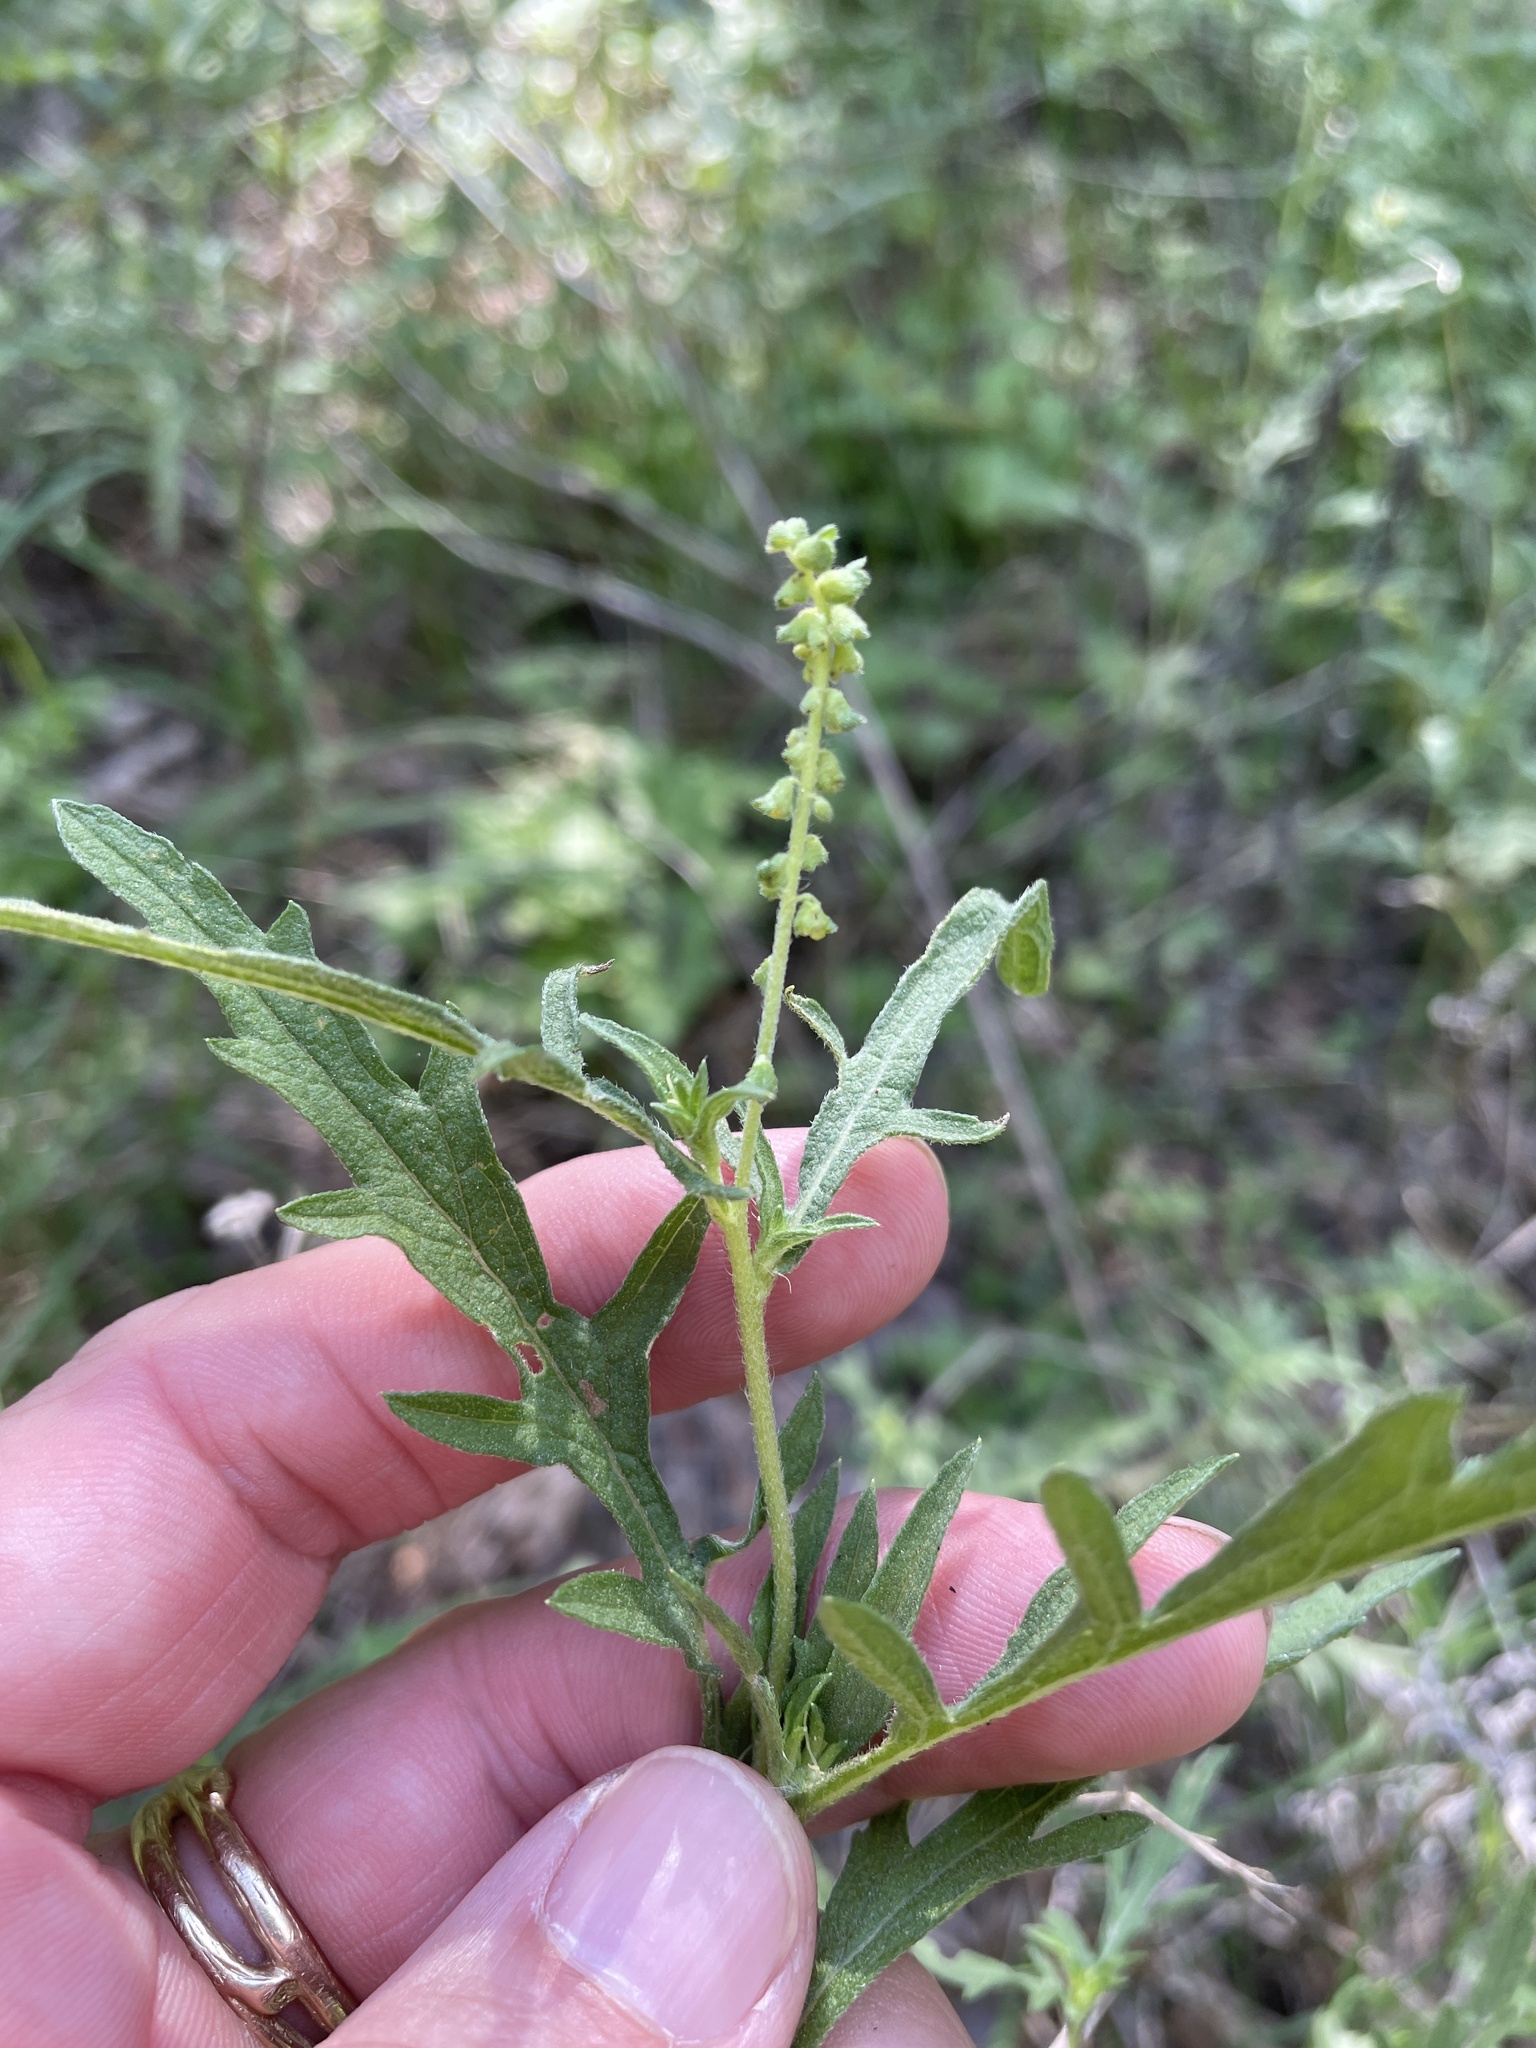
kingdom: Plantae
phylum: Tracheophyta
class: Magnoliopsida
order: Asterales
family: Asteraceae
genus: Ambrosia
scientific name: Ambrosia psilostachya
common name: Perennial ragweed
